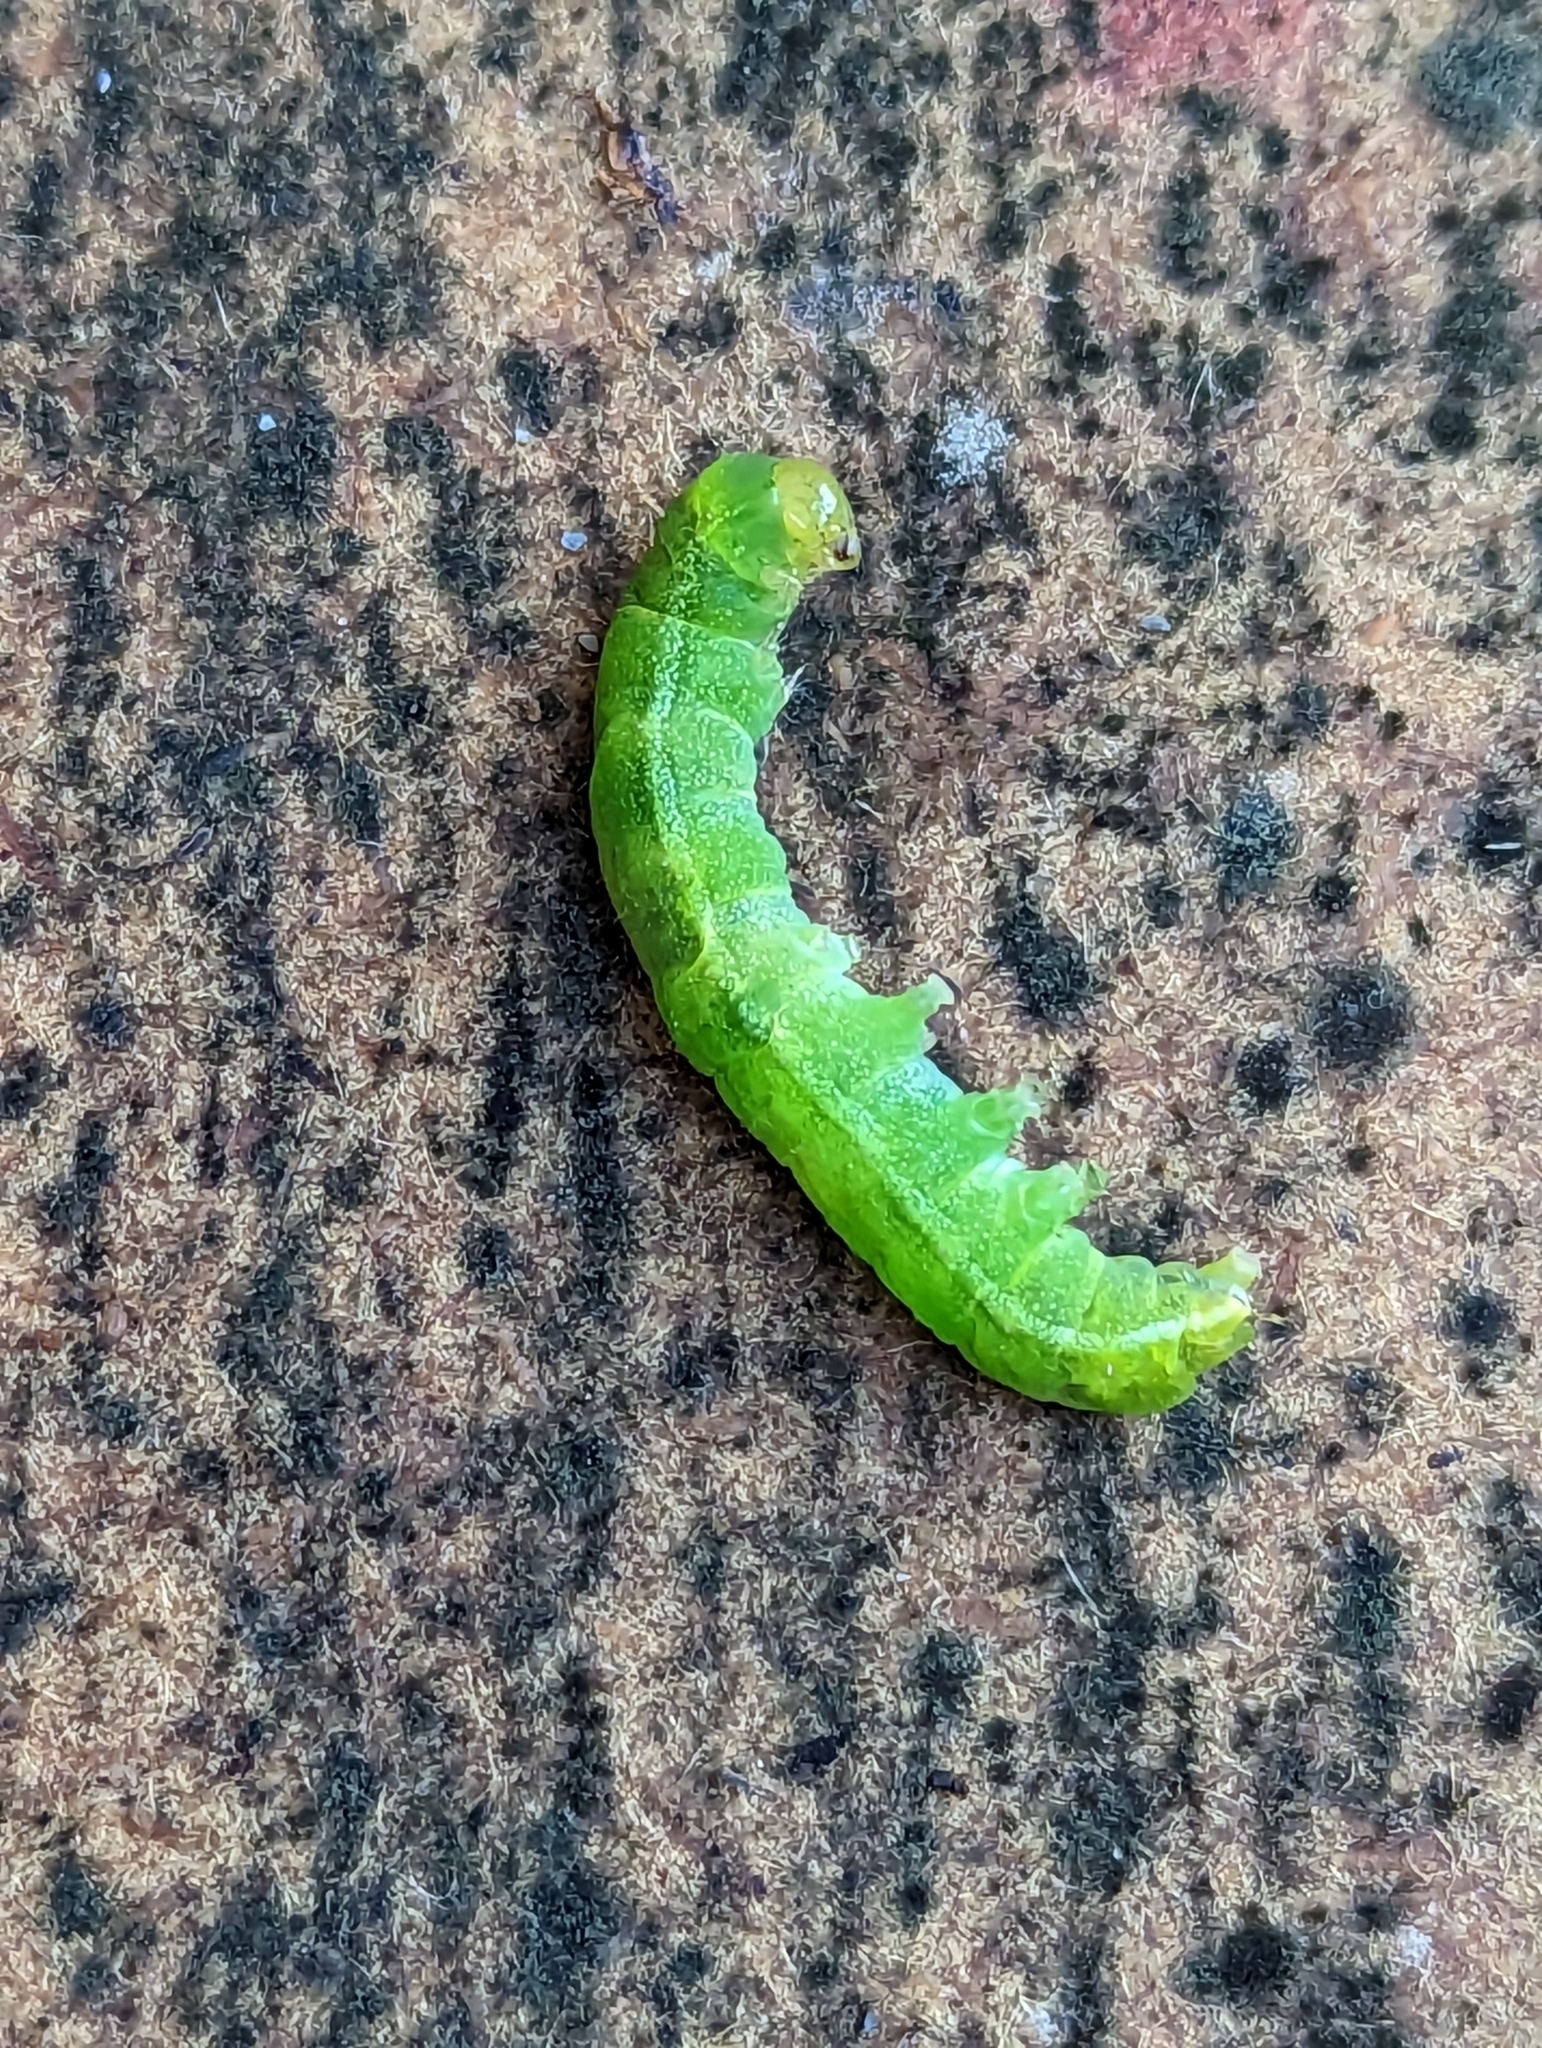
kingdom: Animalia
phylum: Arthropoda
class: Insecta
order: Lepidoptera
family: Noctuidae
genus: Phlogophora
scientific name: Phlogophora meticulosa
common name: Angle shades
